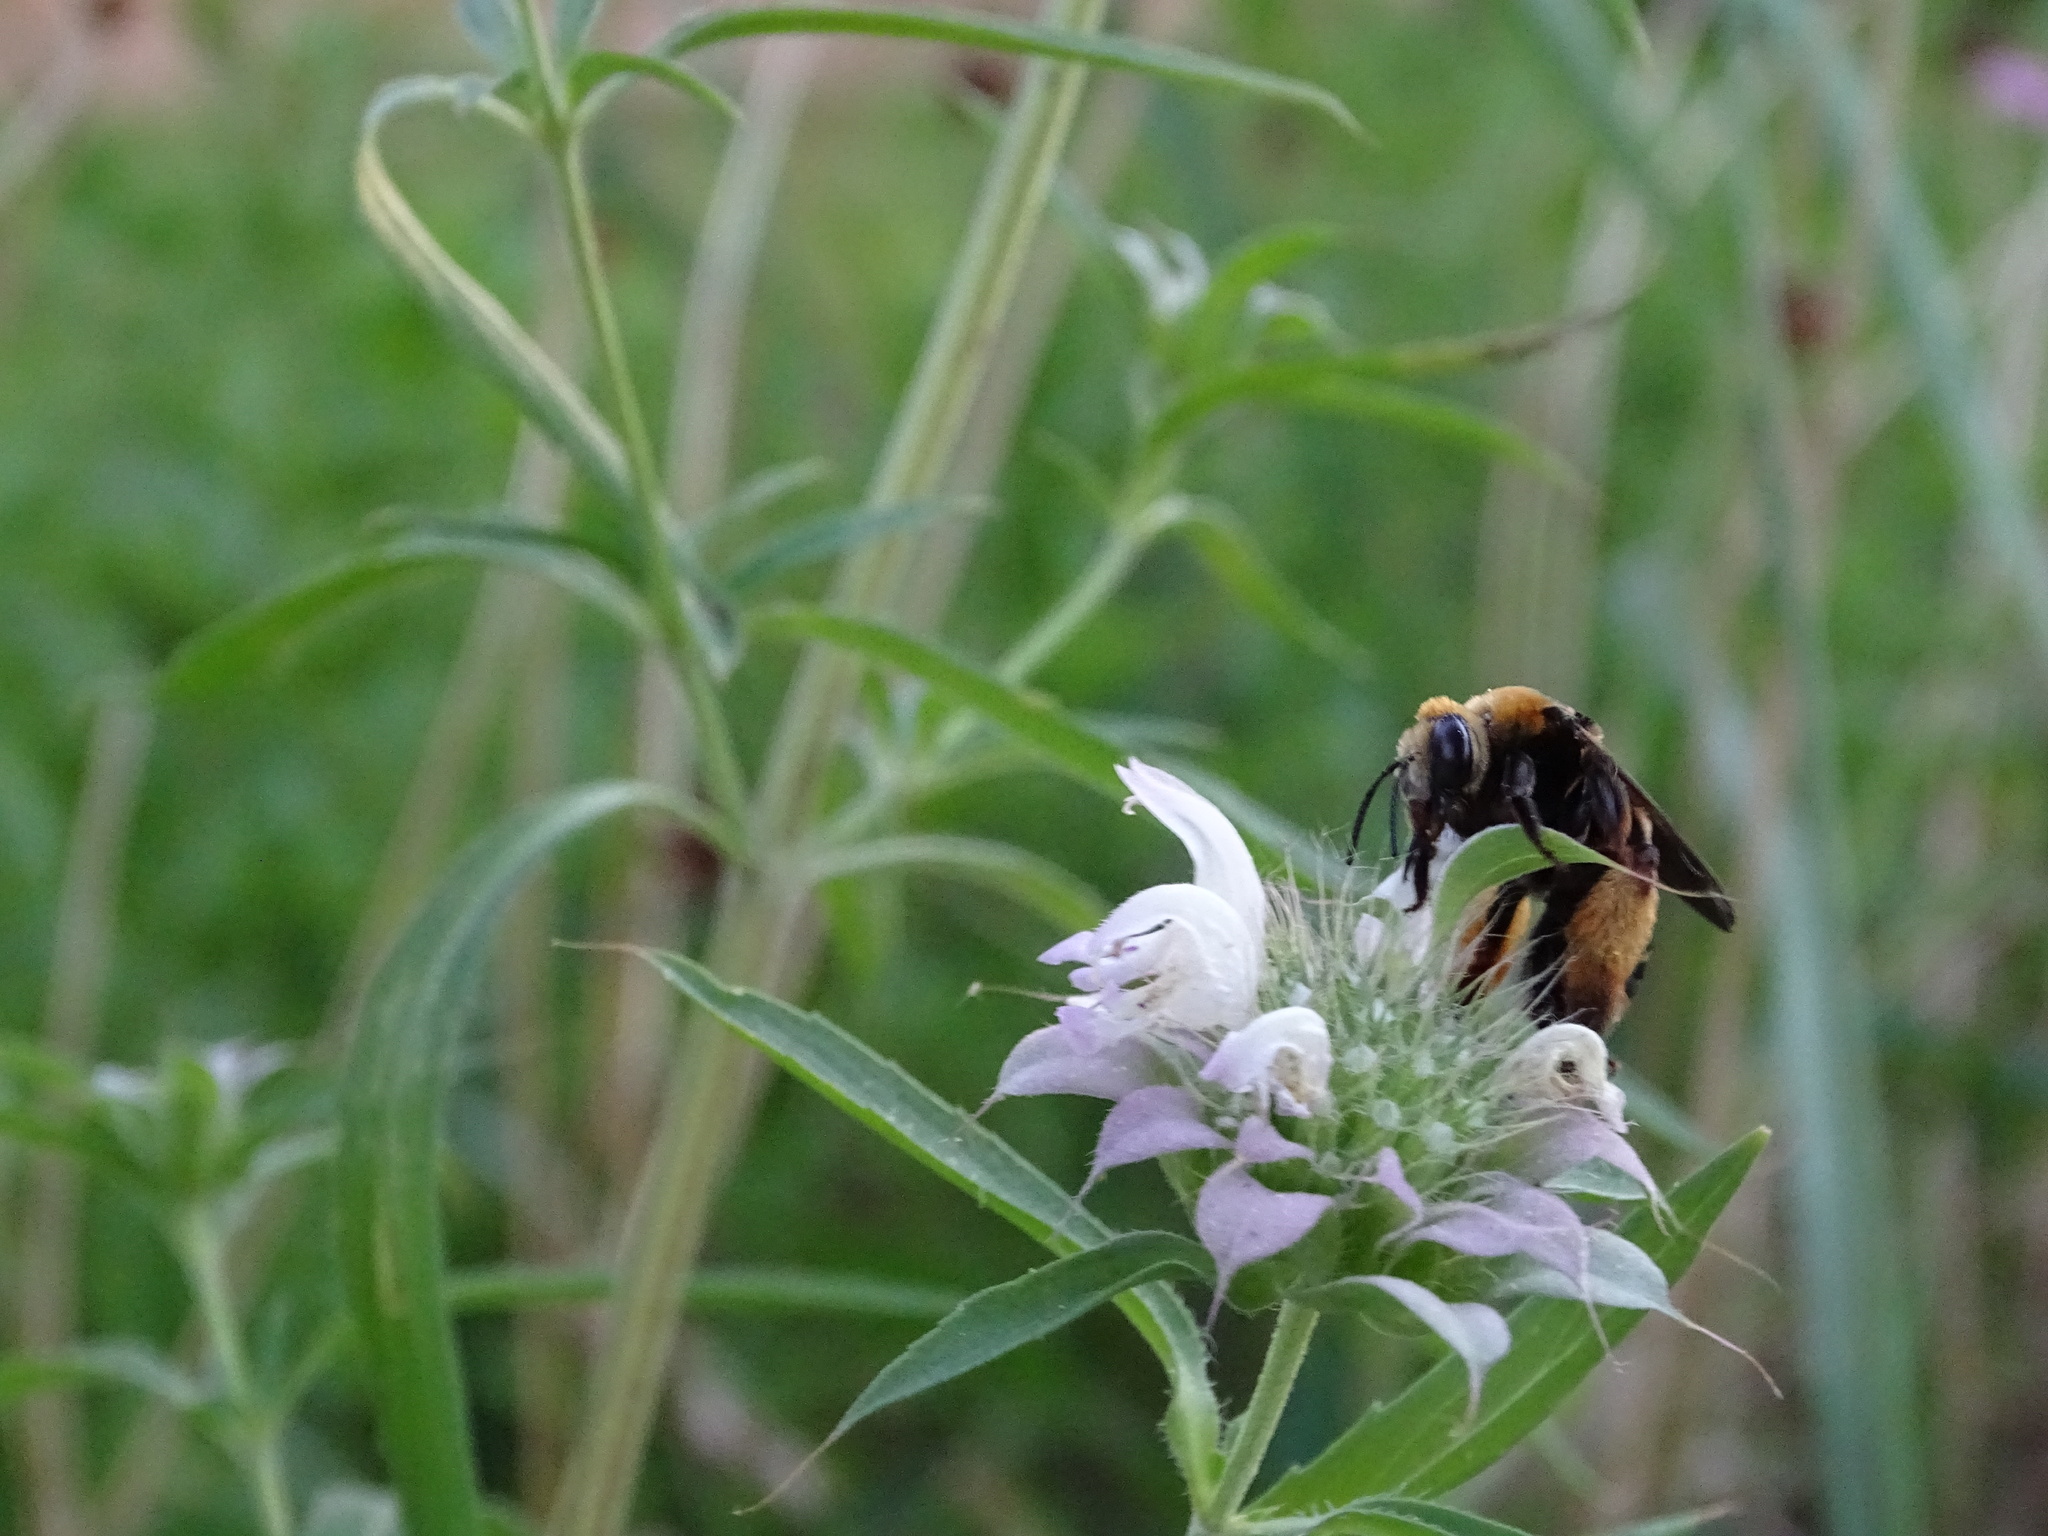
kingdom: Animalia
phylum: Arthropoda
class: Insecta
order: Hymenoptera
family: Apidae
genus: Svastra
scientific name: Svastra obliqua
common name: Oblique longhorn
